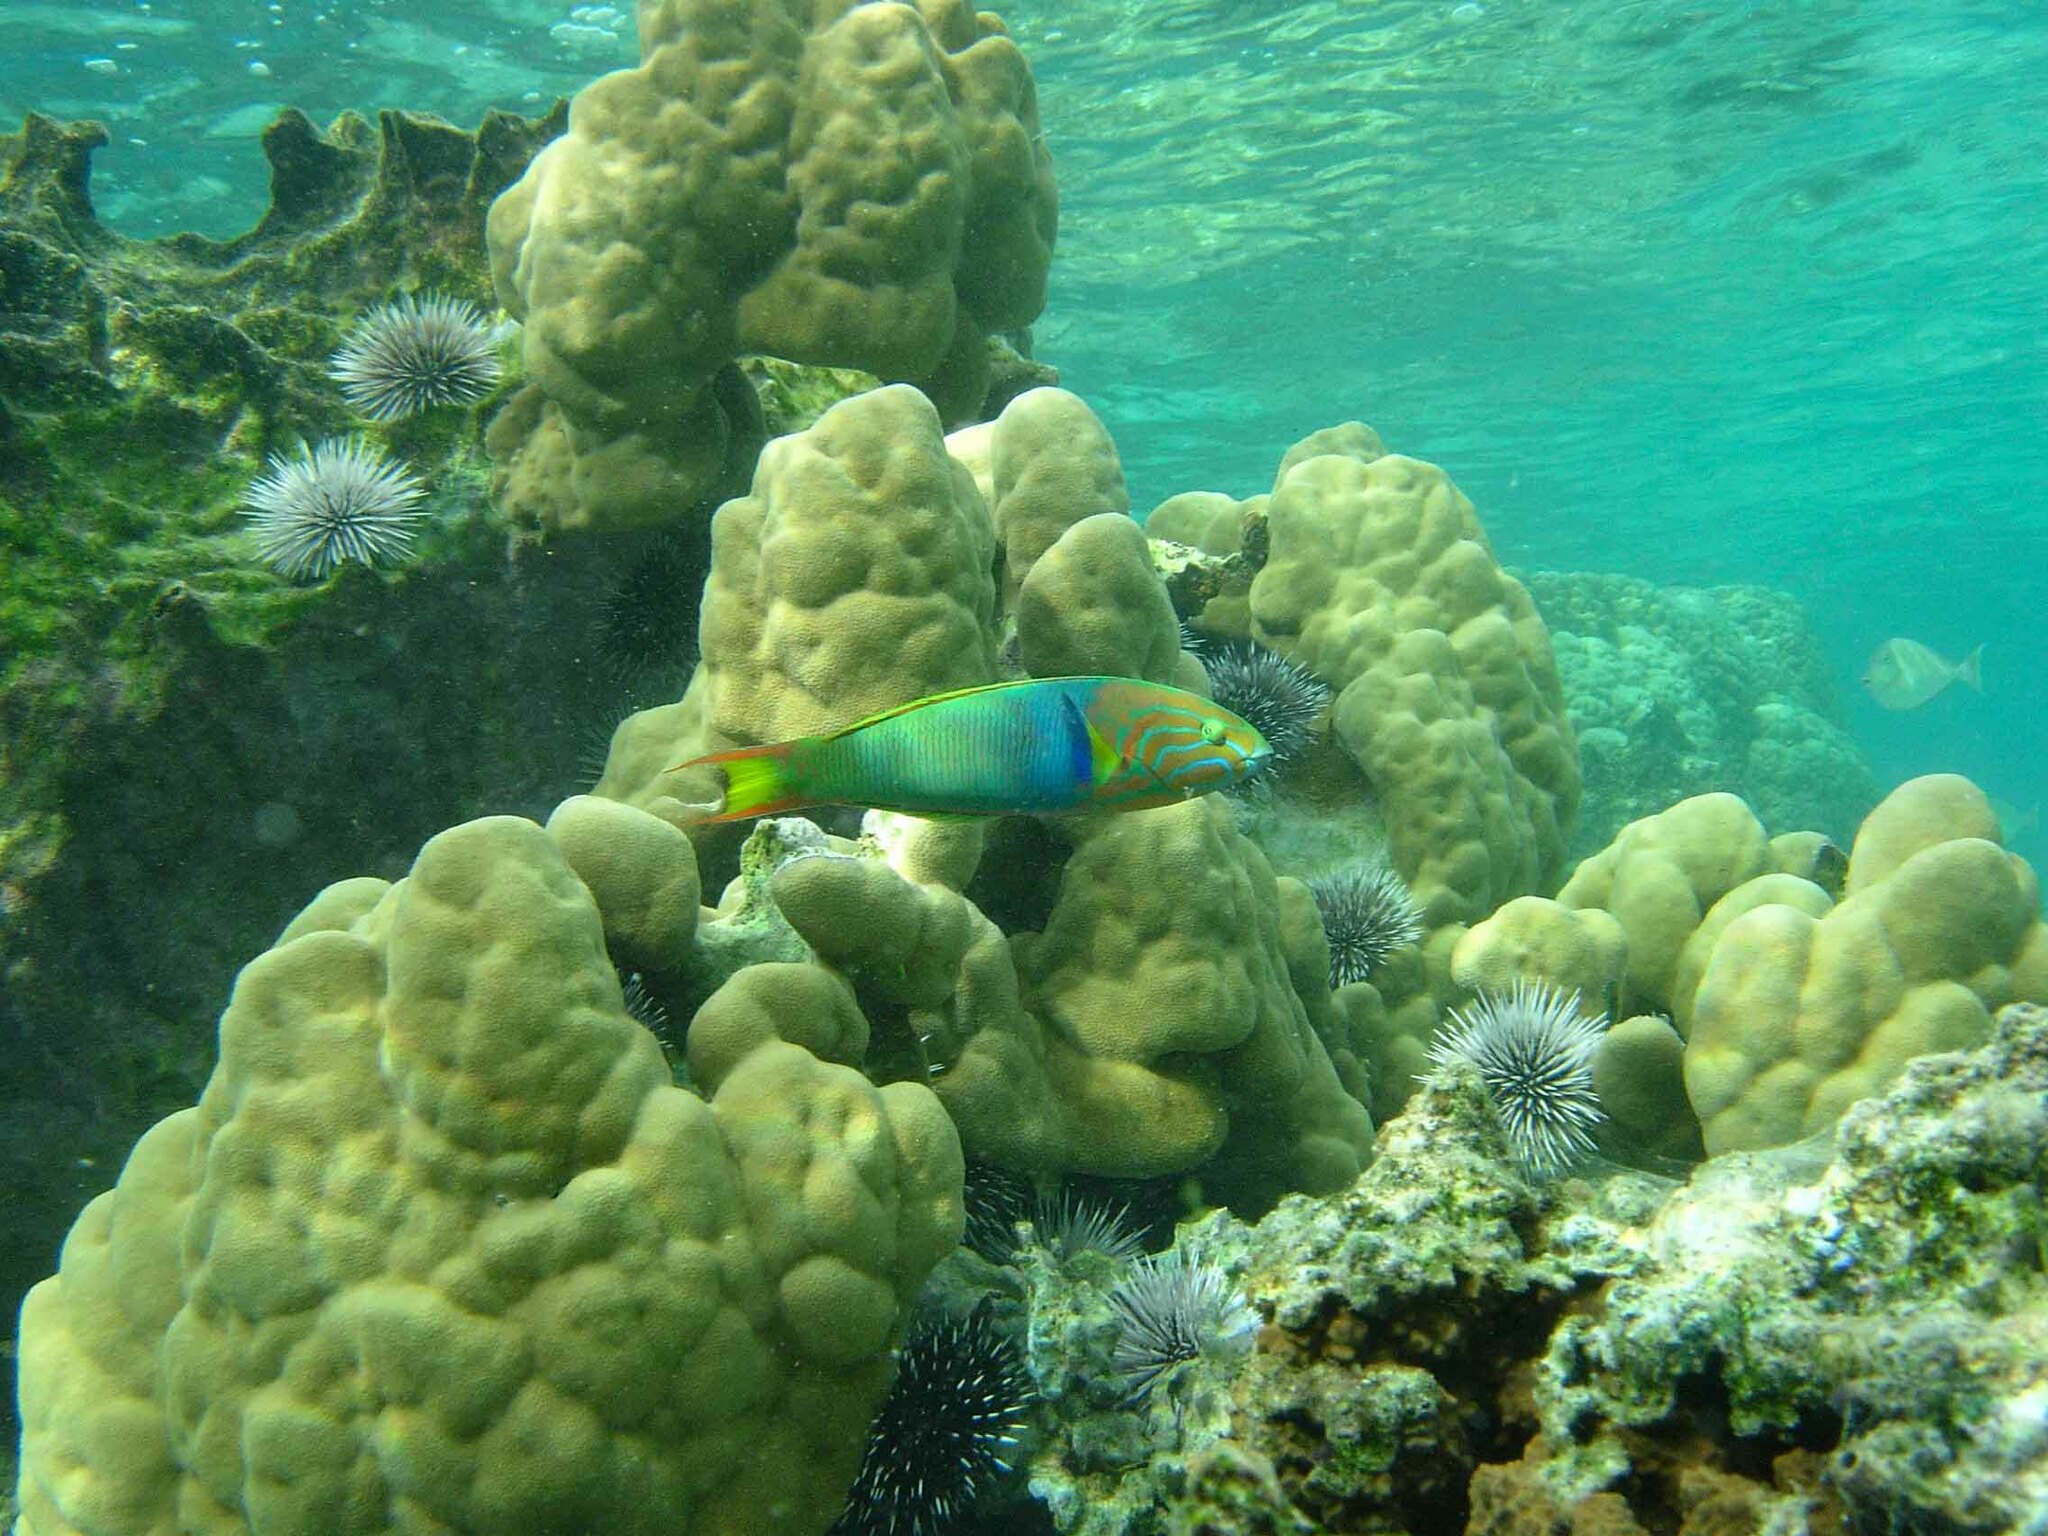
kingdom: Animalia
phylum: Chordata
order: Perciformes
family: Labridae
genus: Thalassoma
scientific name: Thalassoma lutescens
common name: Green moon wrasse
